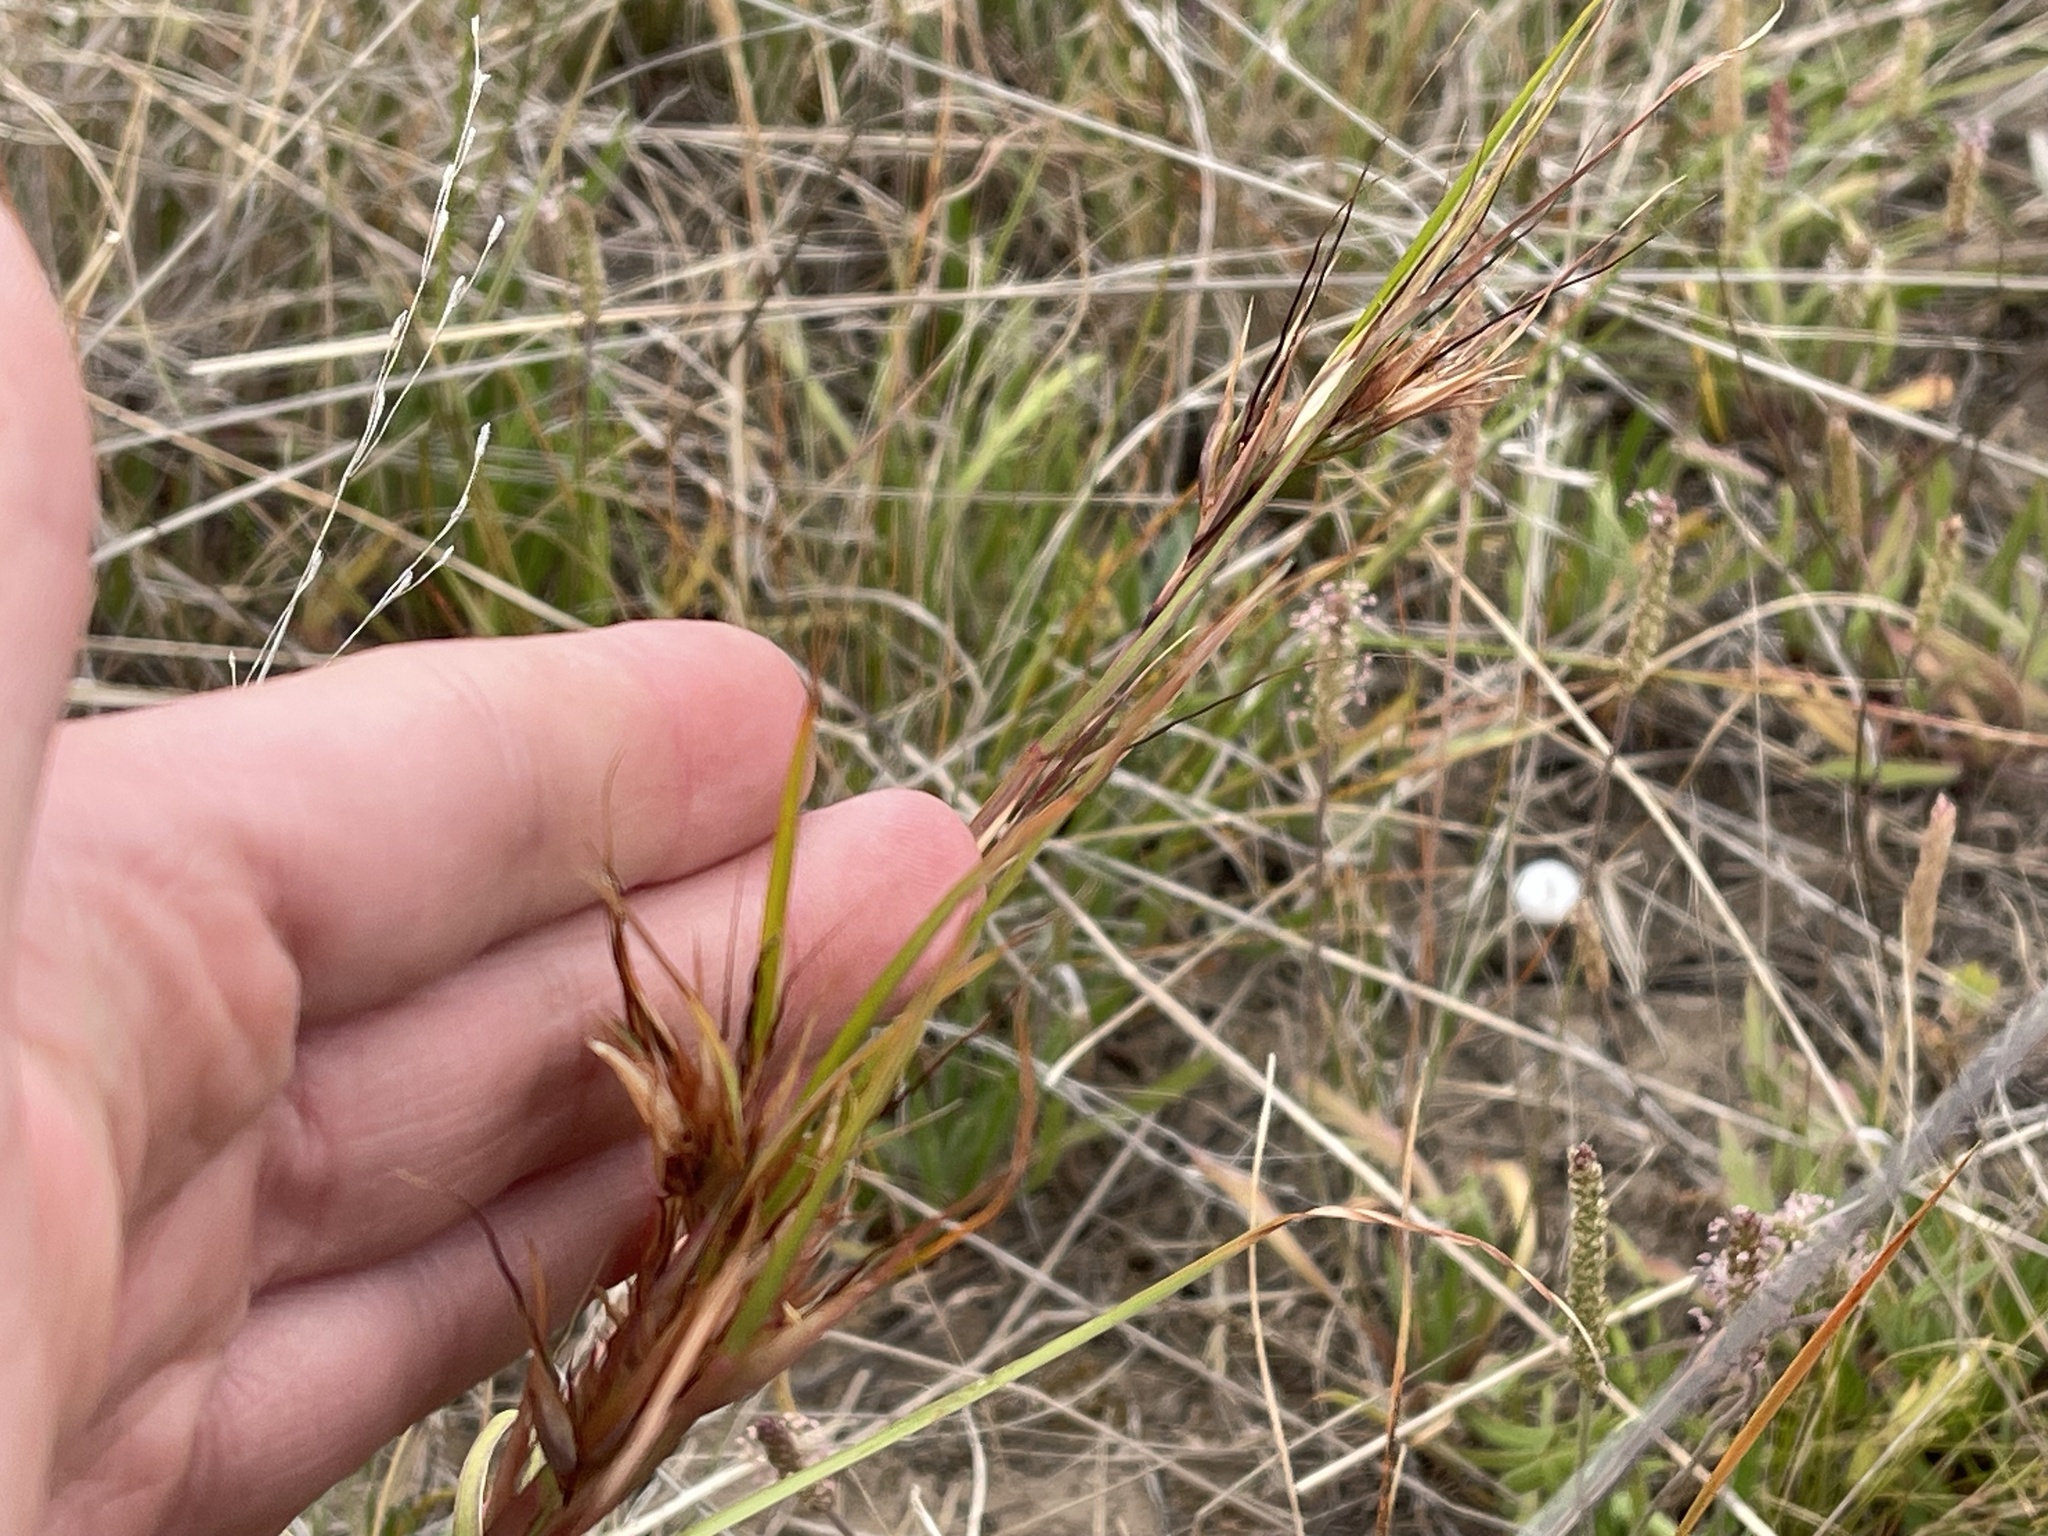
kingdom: Plantae
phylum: Tracheophyta
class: Liliopsida
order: Poales
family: Poaceae
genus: Themeda
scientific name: Themeda triandra
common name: Kangaroo grass
